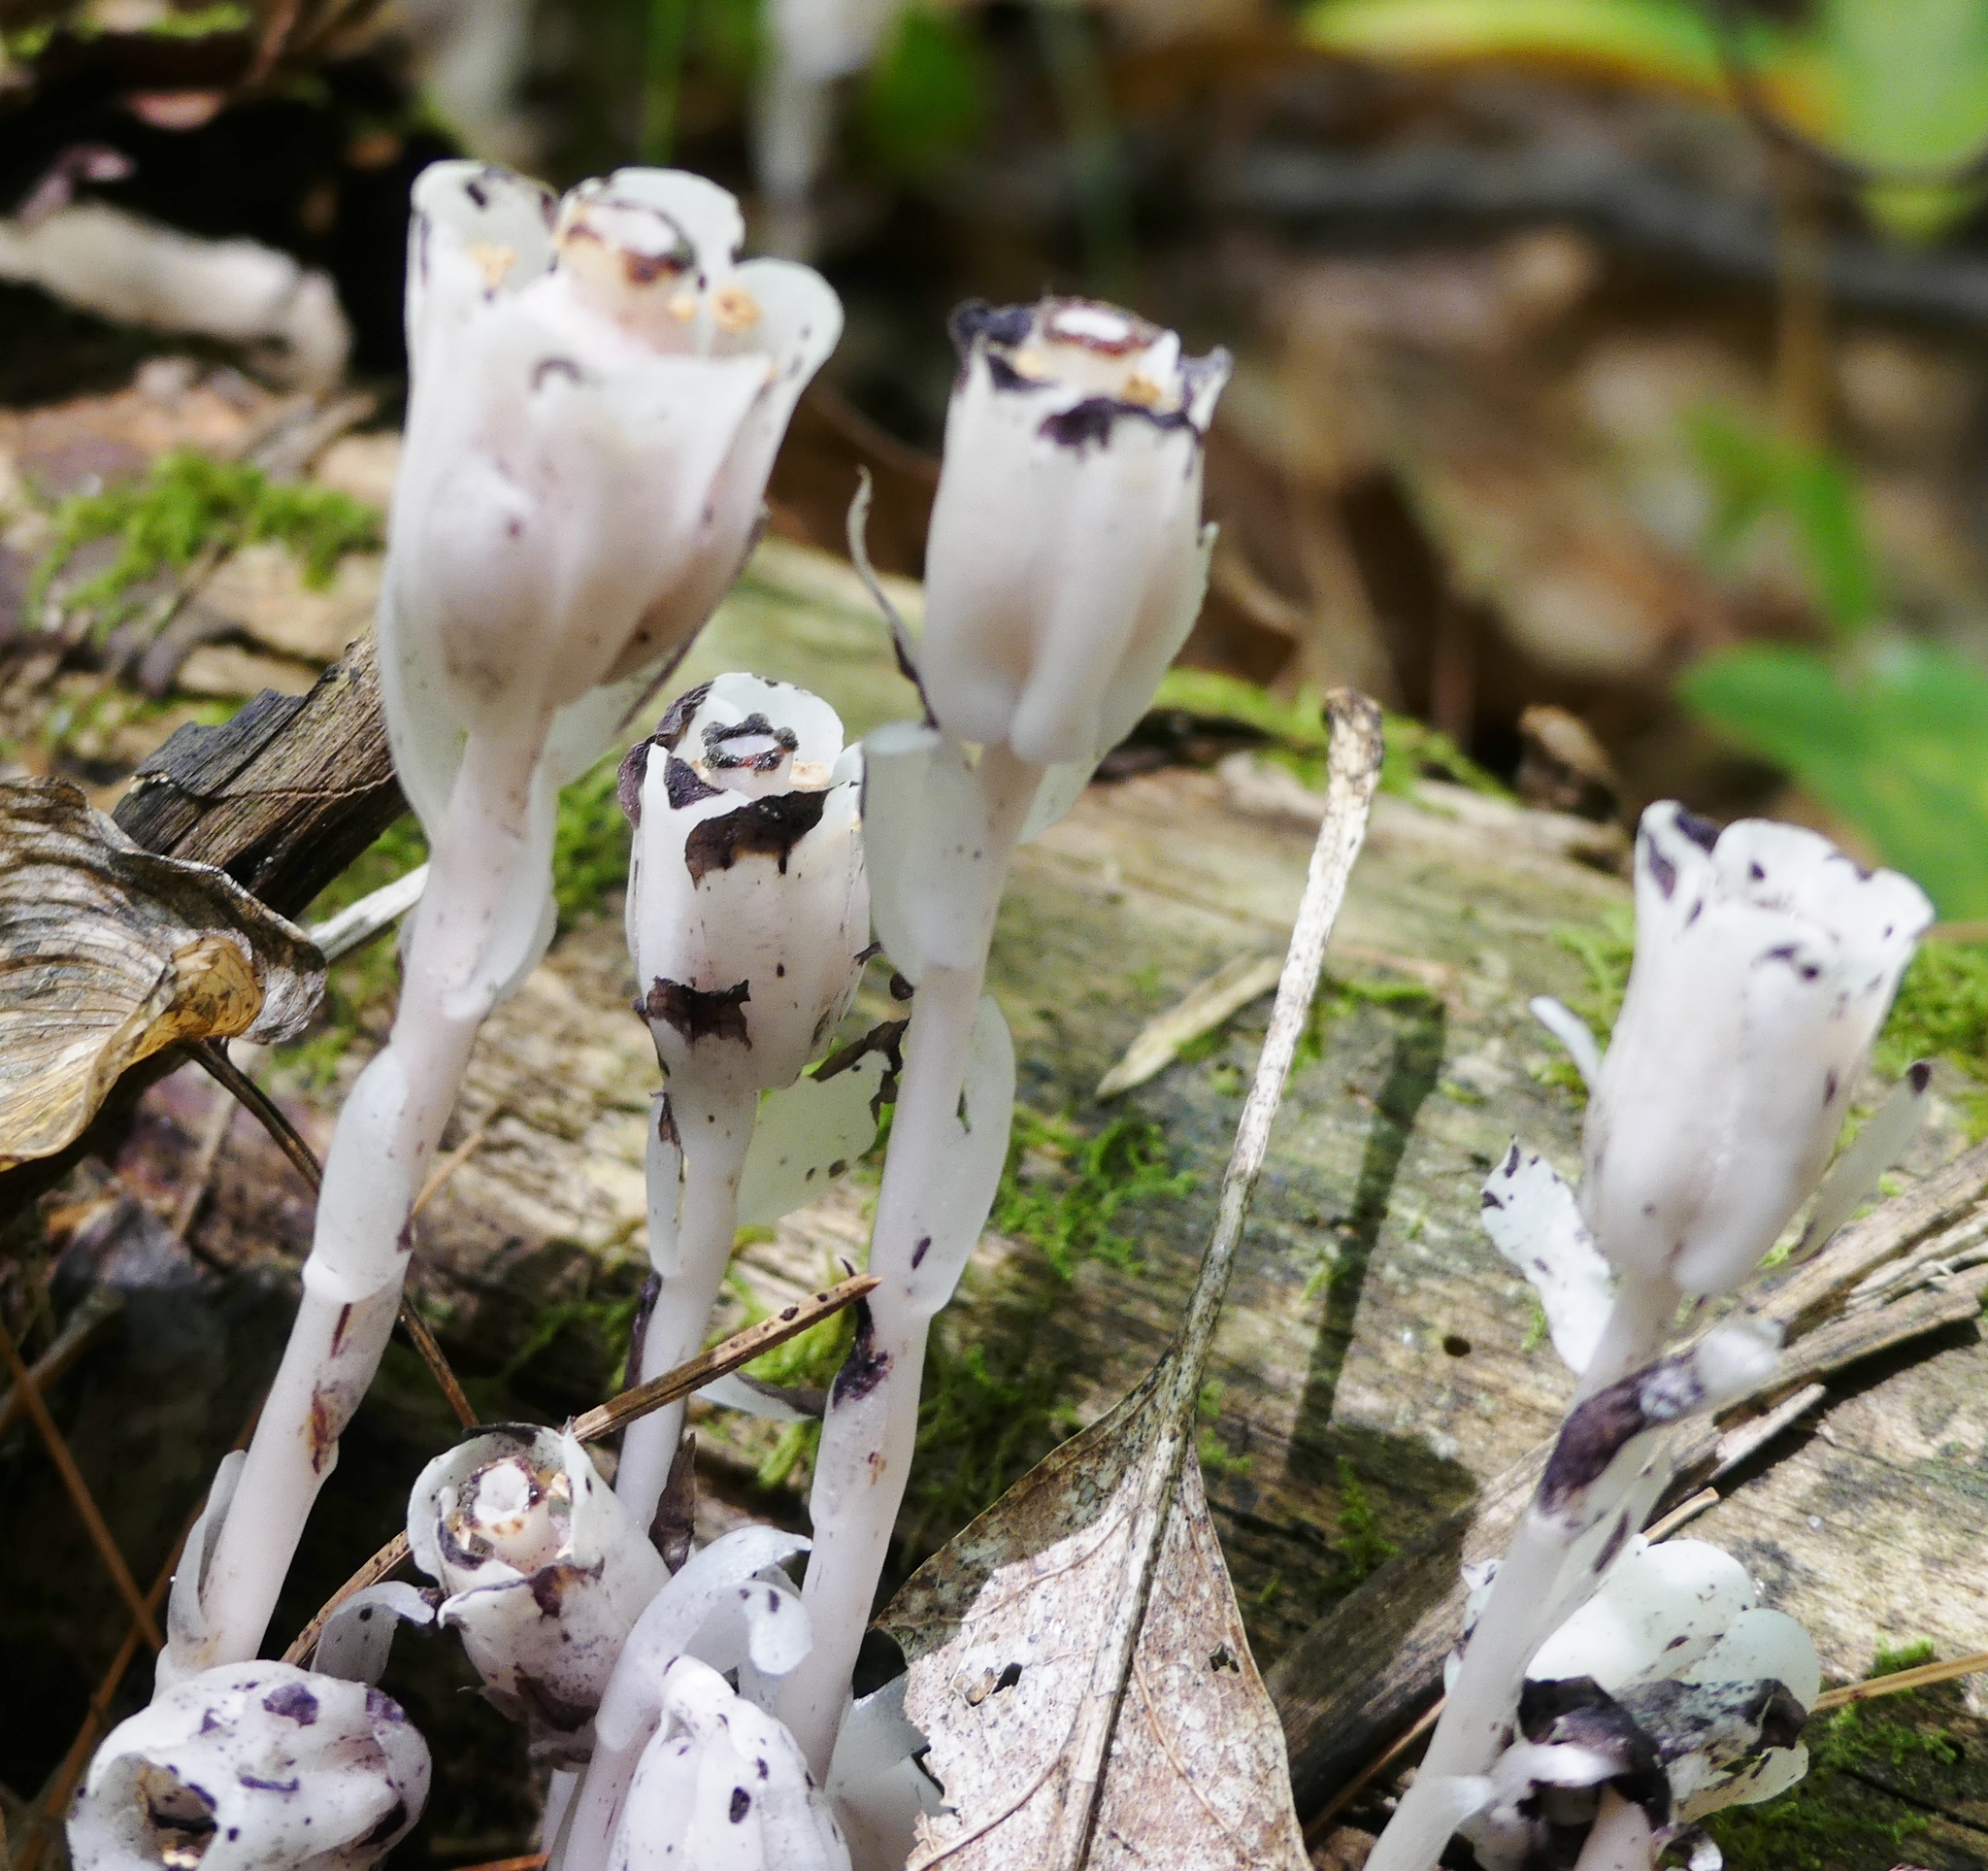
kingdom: Plantae
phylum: Tracheophyta
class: Magnoliopsida
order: Ericales
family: Ericaceae
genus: Monotropa
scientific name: Monotropa uniflora
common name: Convulsion root
